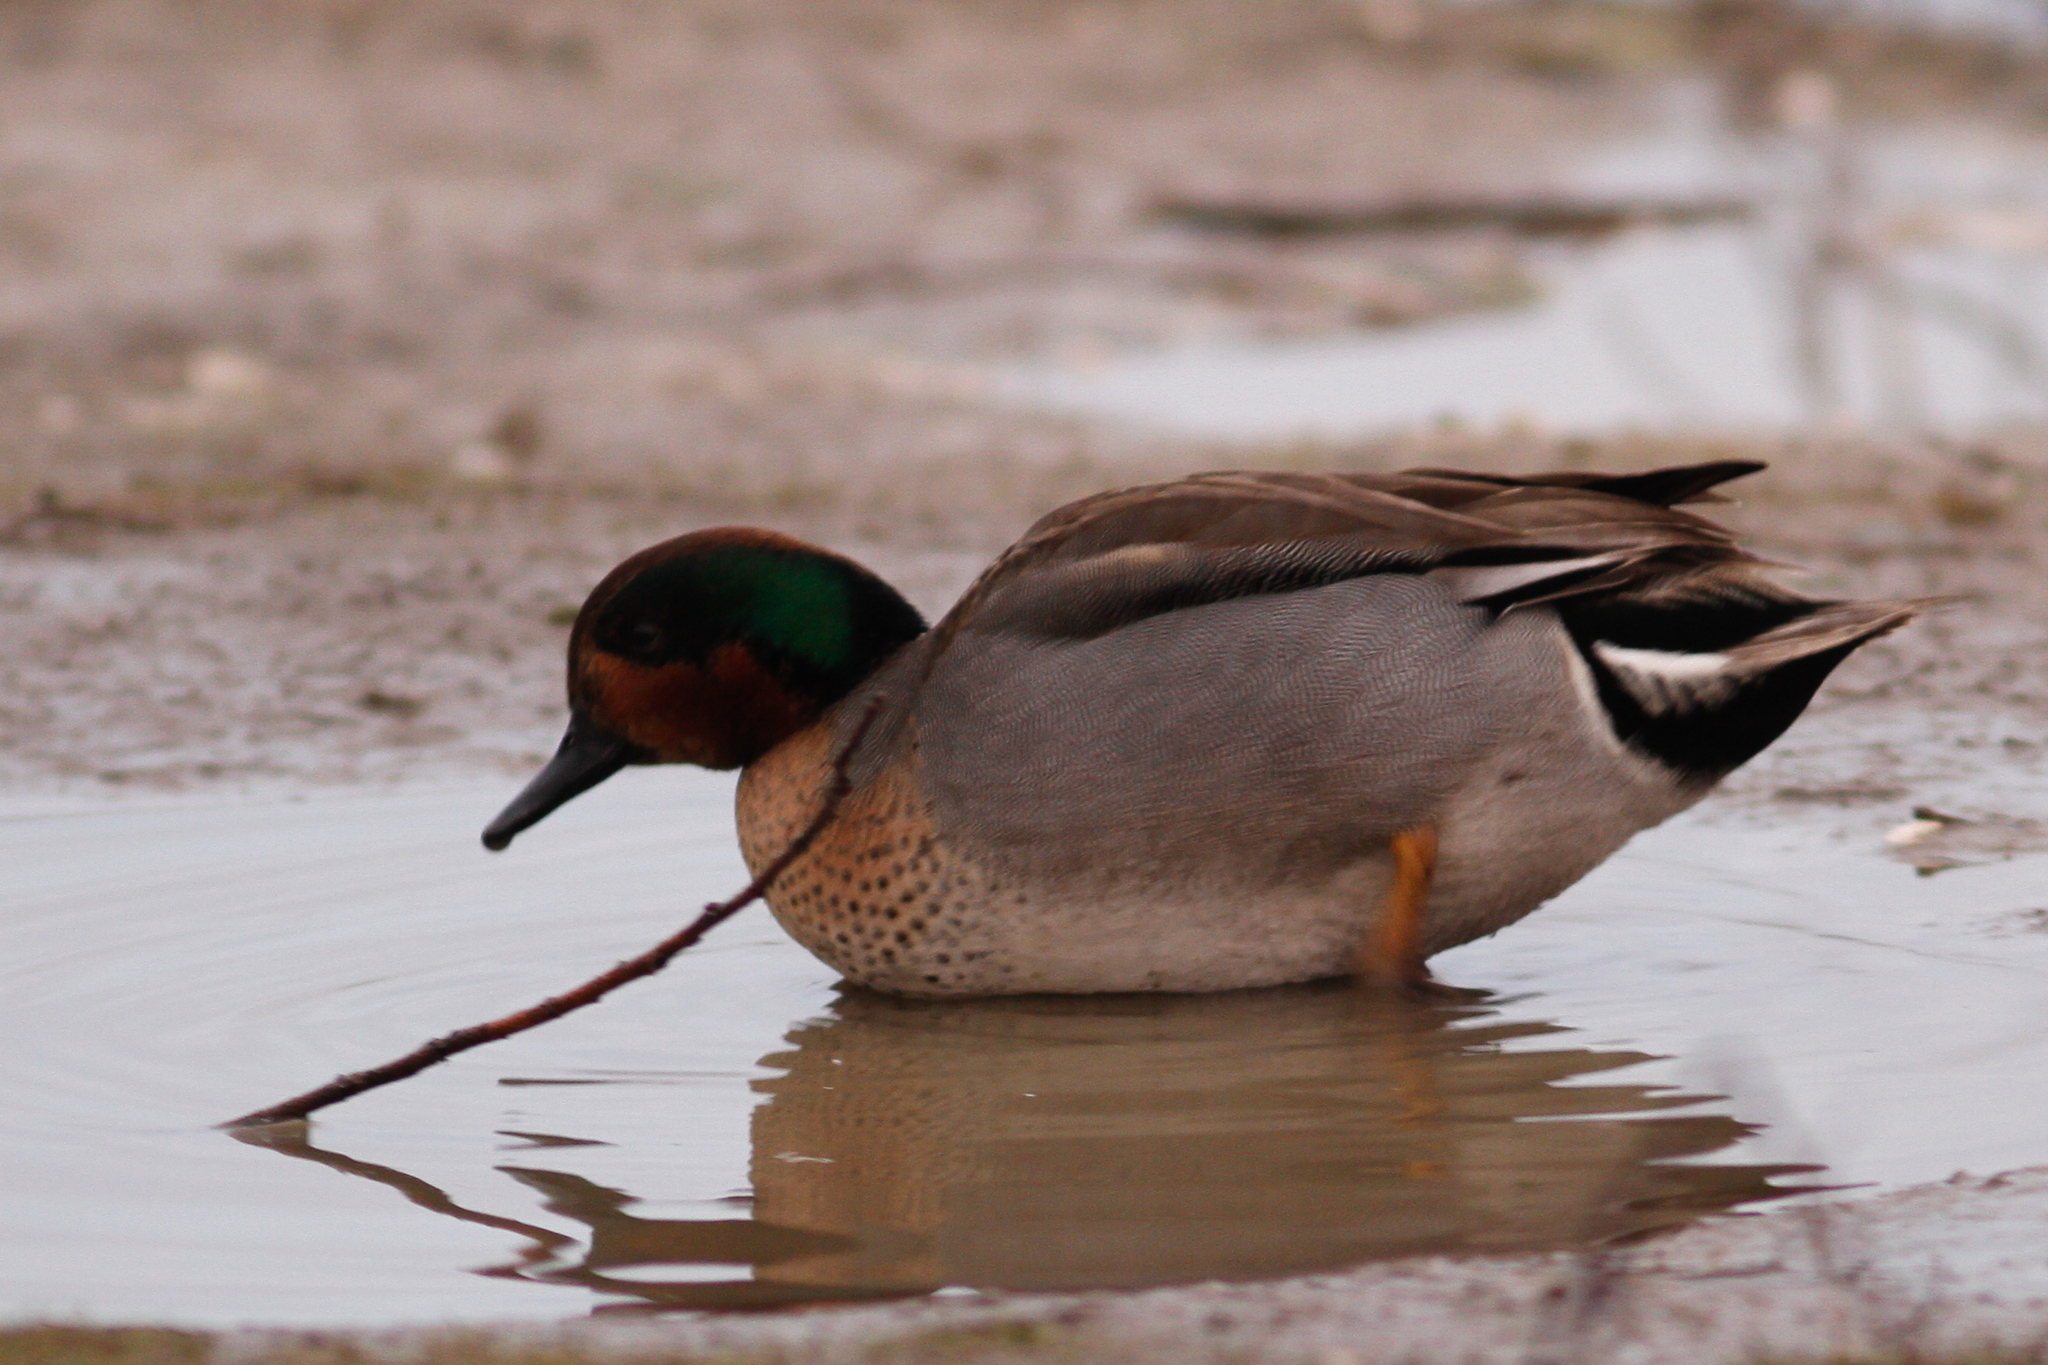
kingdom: Animalia
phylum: Chordata
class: Aves
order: Anseriformes
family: Anatidae
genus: Anas
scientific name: Anas crecca
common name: Eurasian teal
